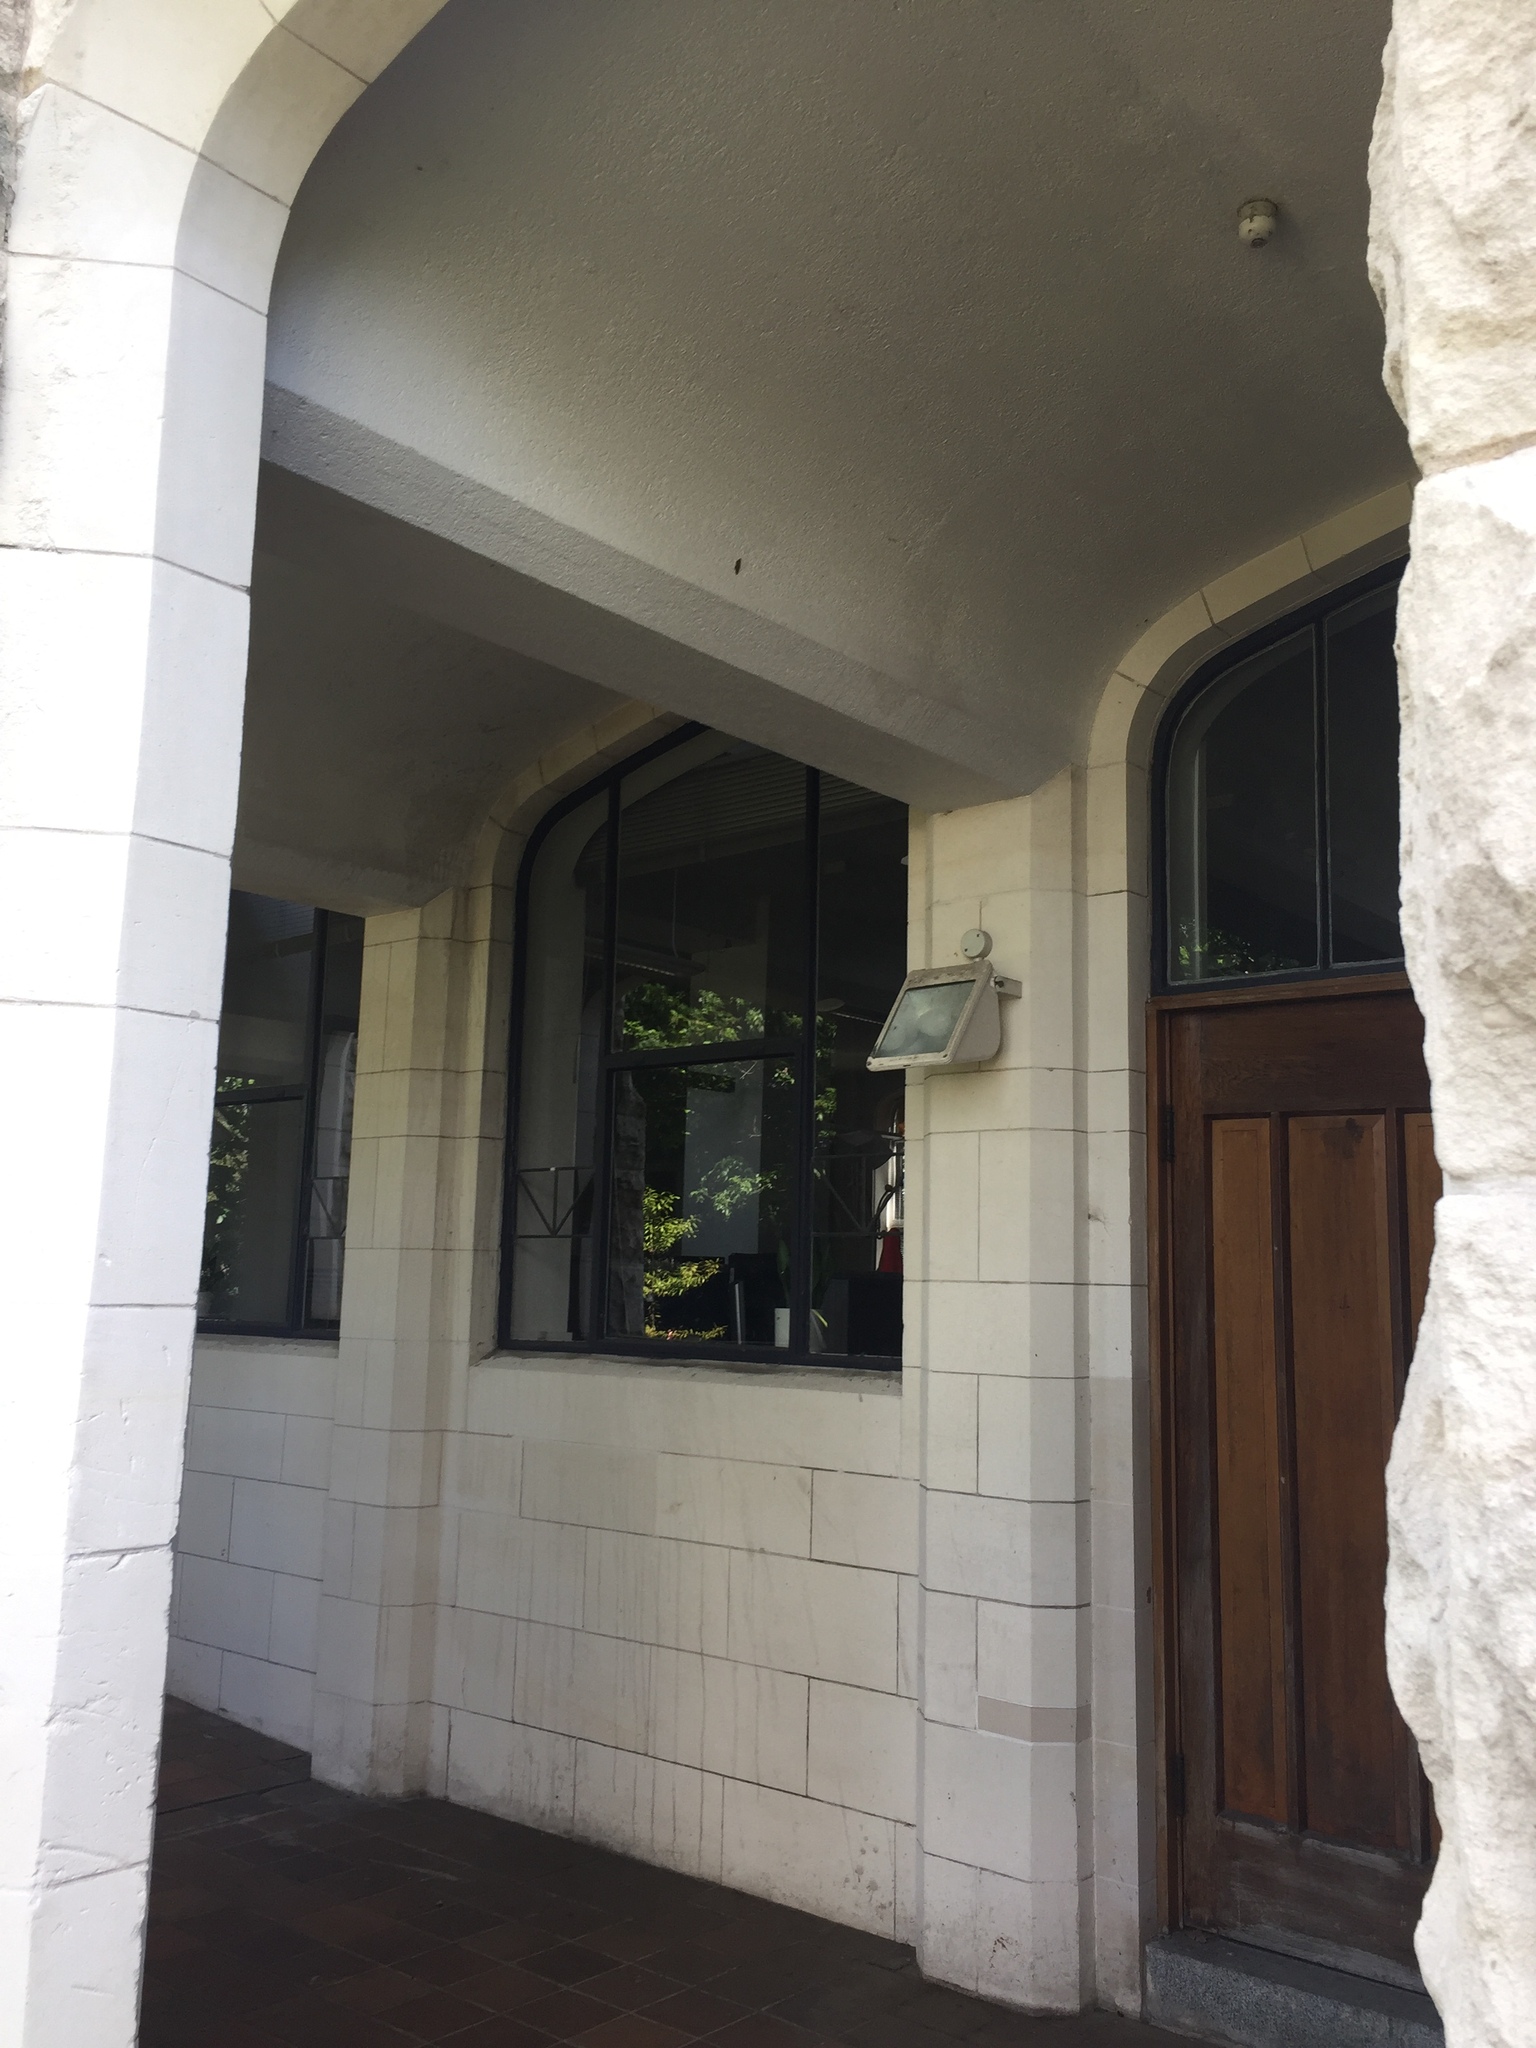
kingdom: Animalia
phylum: Arthropoda
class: Insecta
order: Lepidoptera
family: Geometridae
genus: Austrocidaria
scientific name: Austrocidaria bipartita
